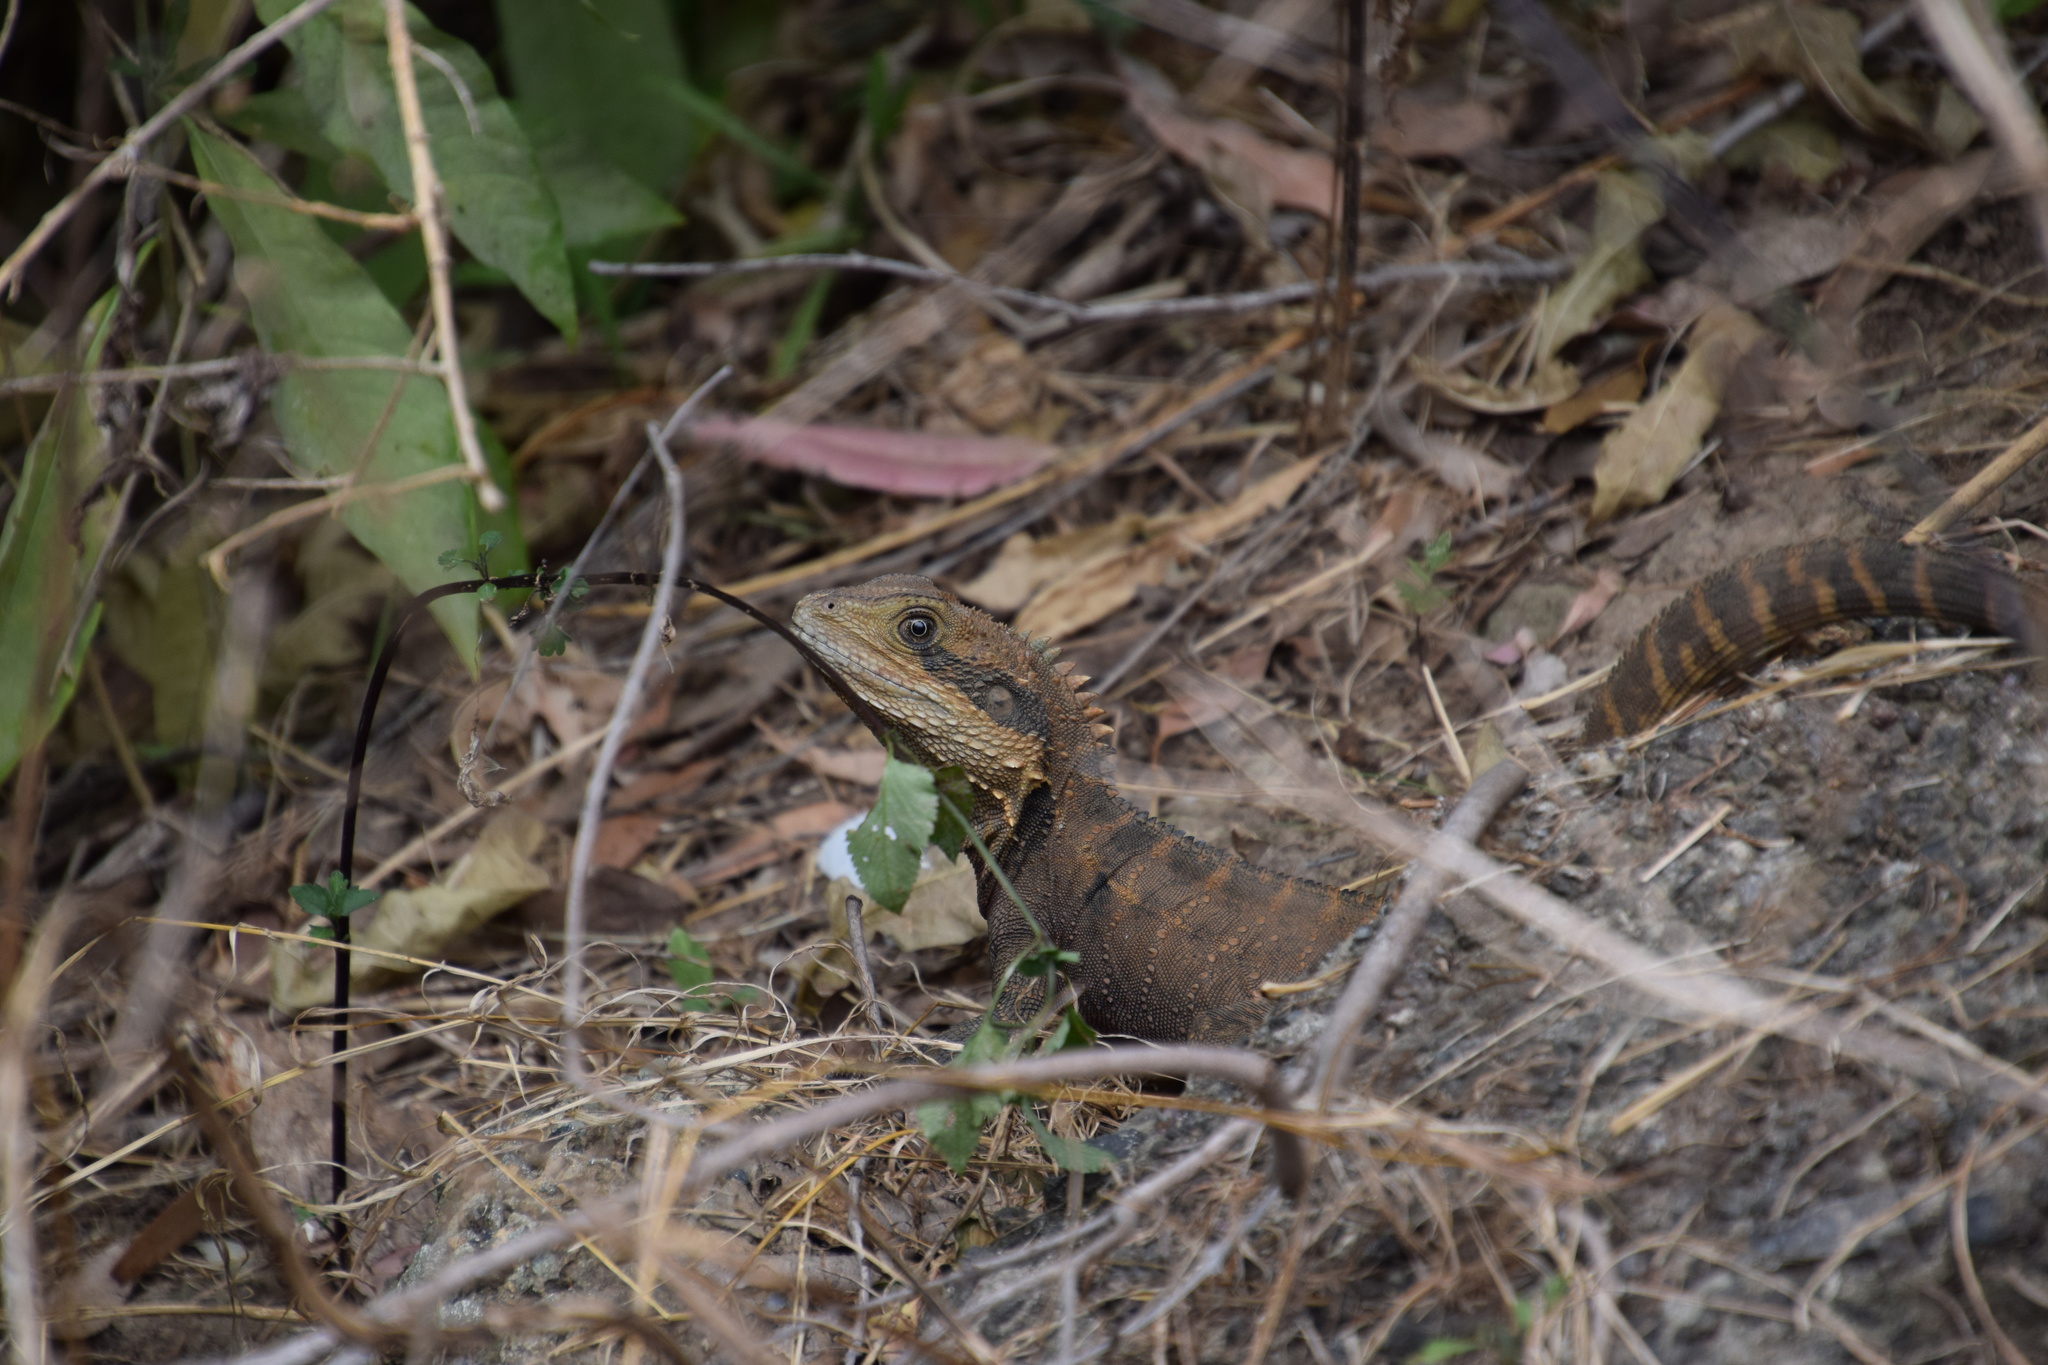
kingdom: Animalia
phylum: Chordata
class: Squamata
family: Agamidae
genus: Intellagama
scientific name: Intellagama lesueurii
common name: Eastern water dragon
